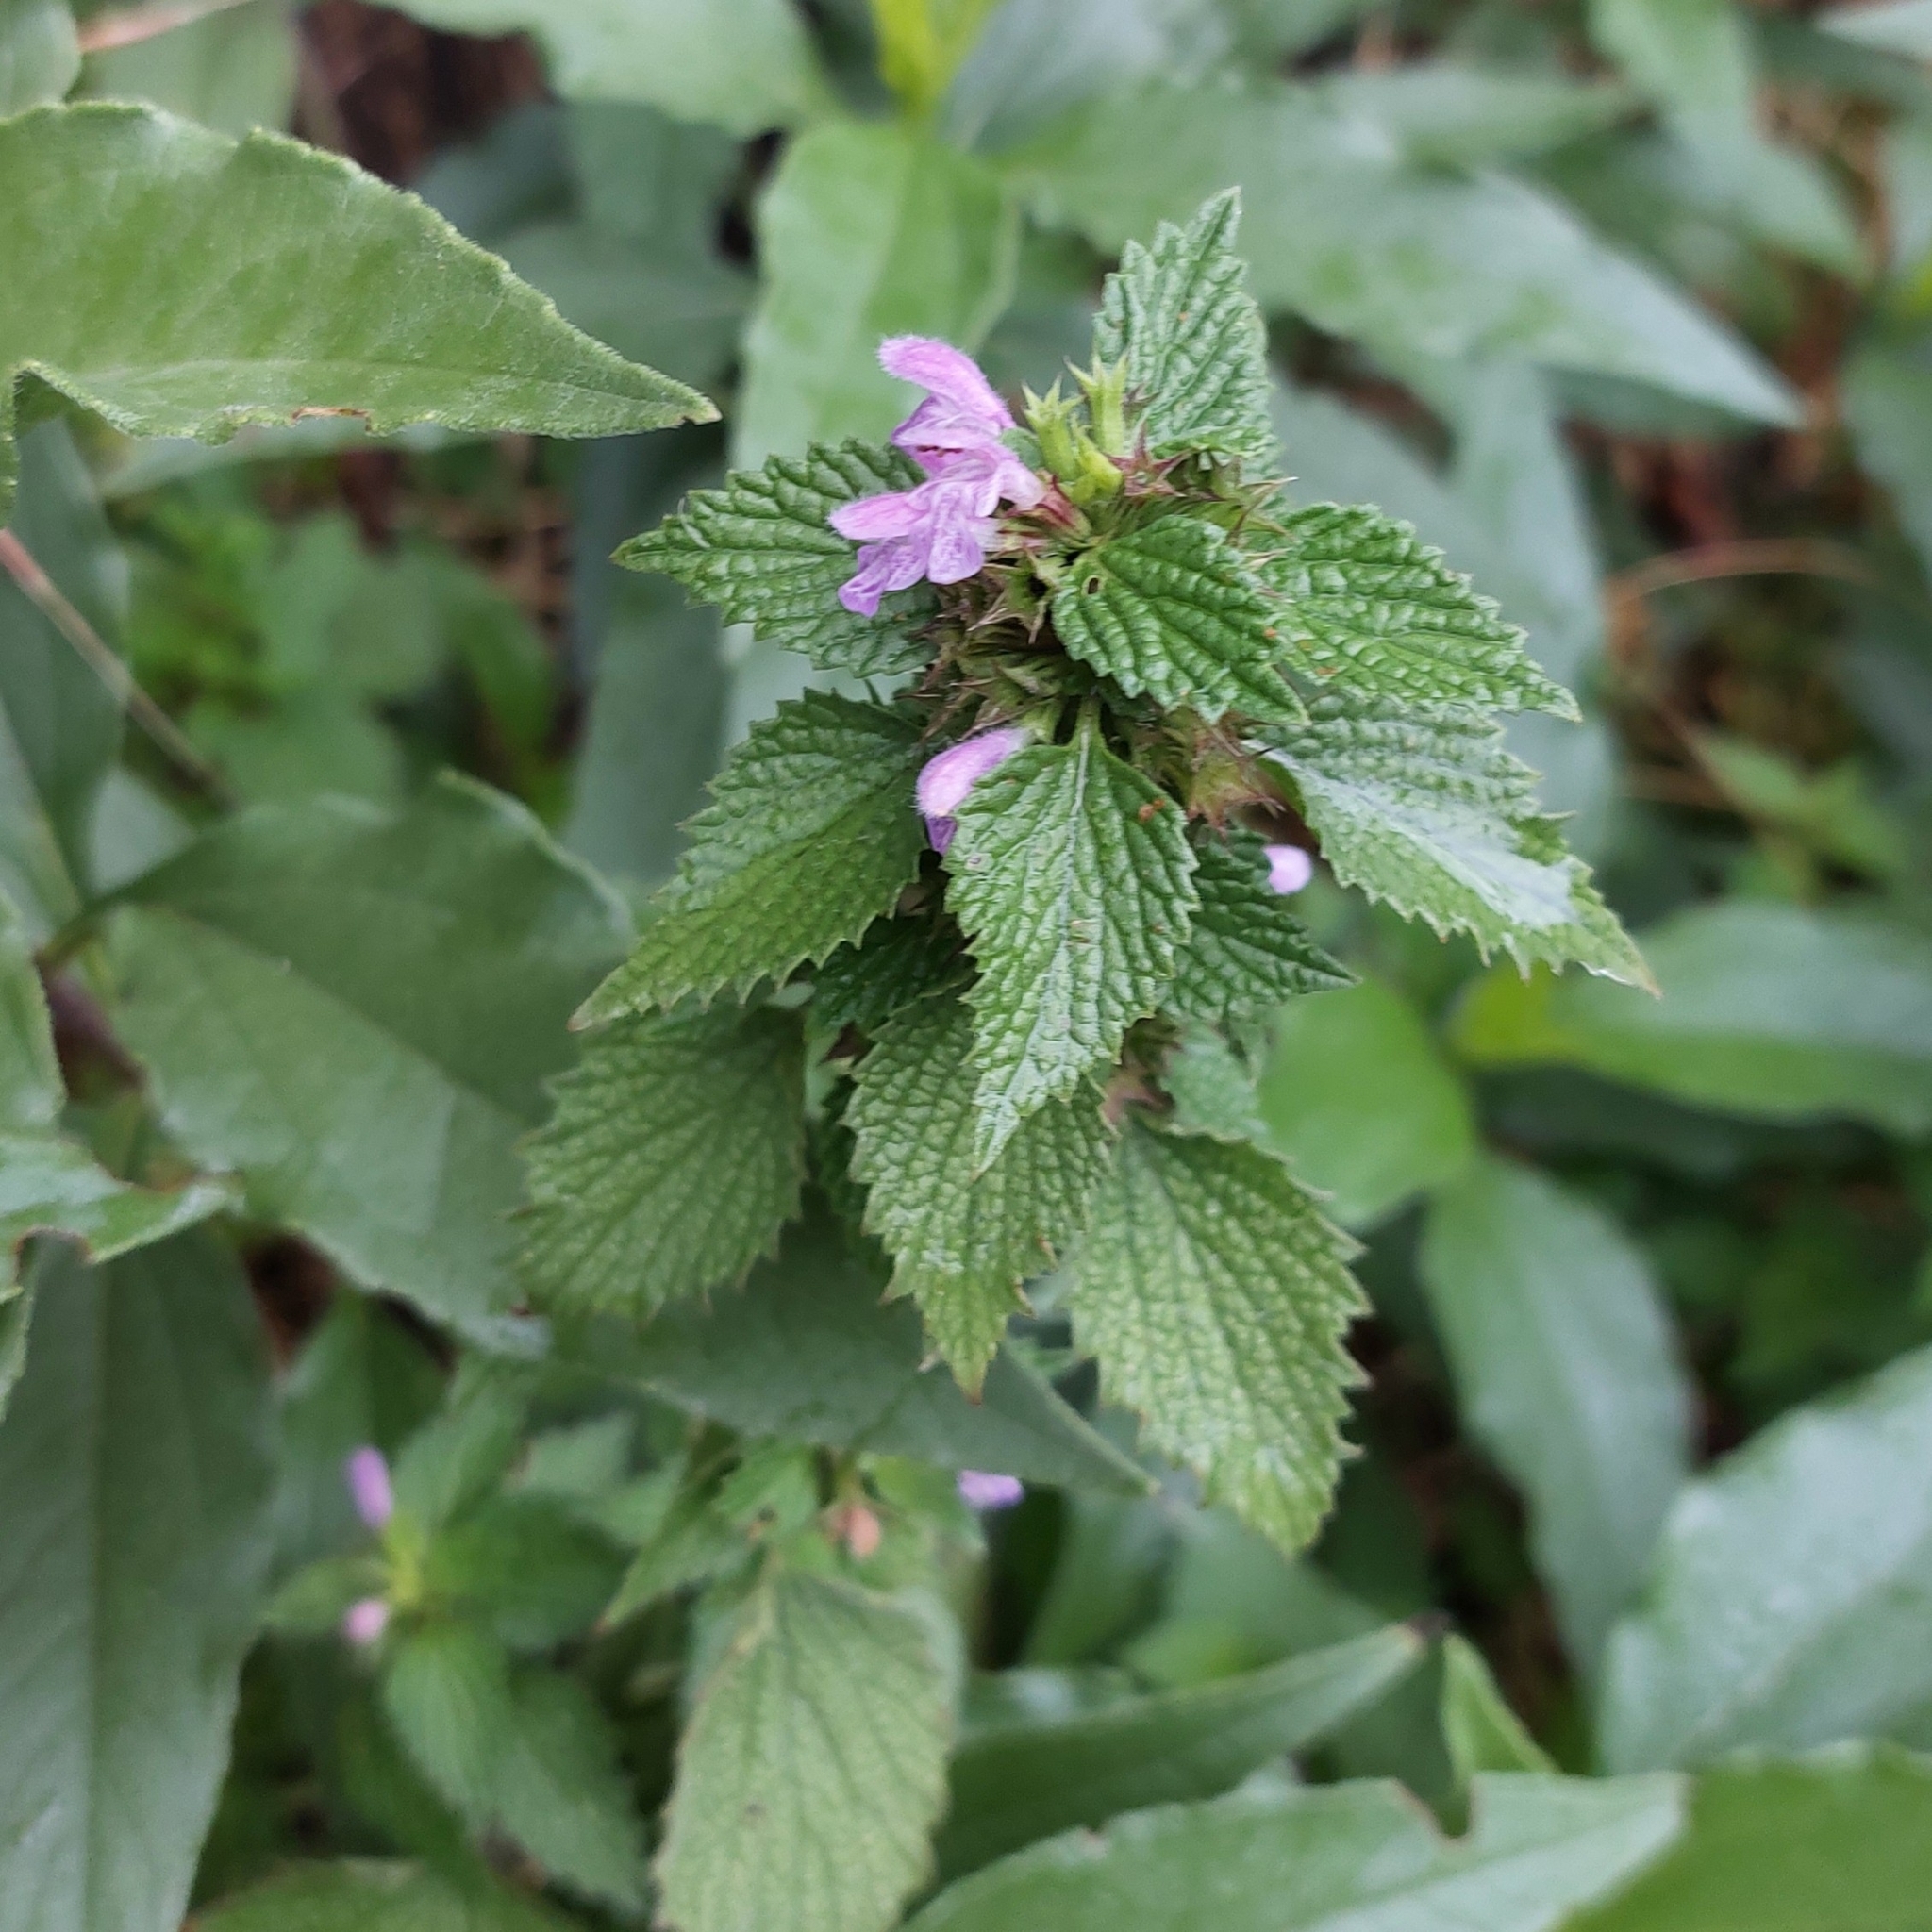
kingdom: Plantae
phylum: Tracheophyta
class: Magnoliopsida
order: Lamiales
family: Lamiaceae
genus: Ballota
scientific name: Ballota nigra
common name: Black horehound
